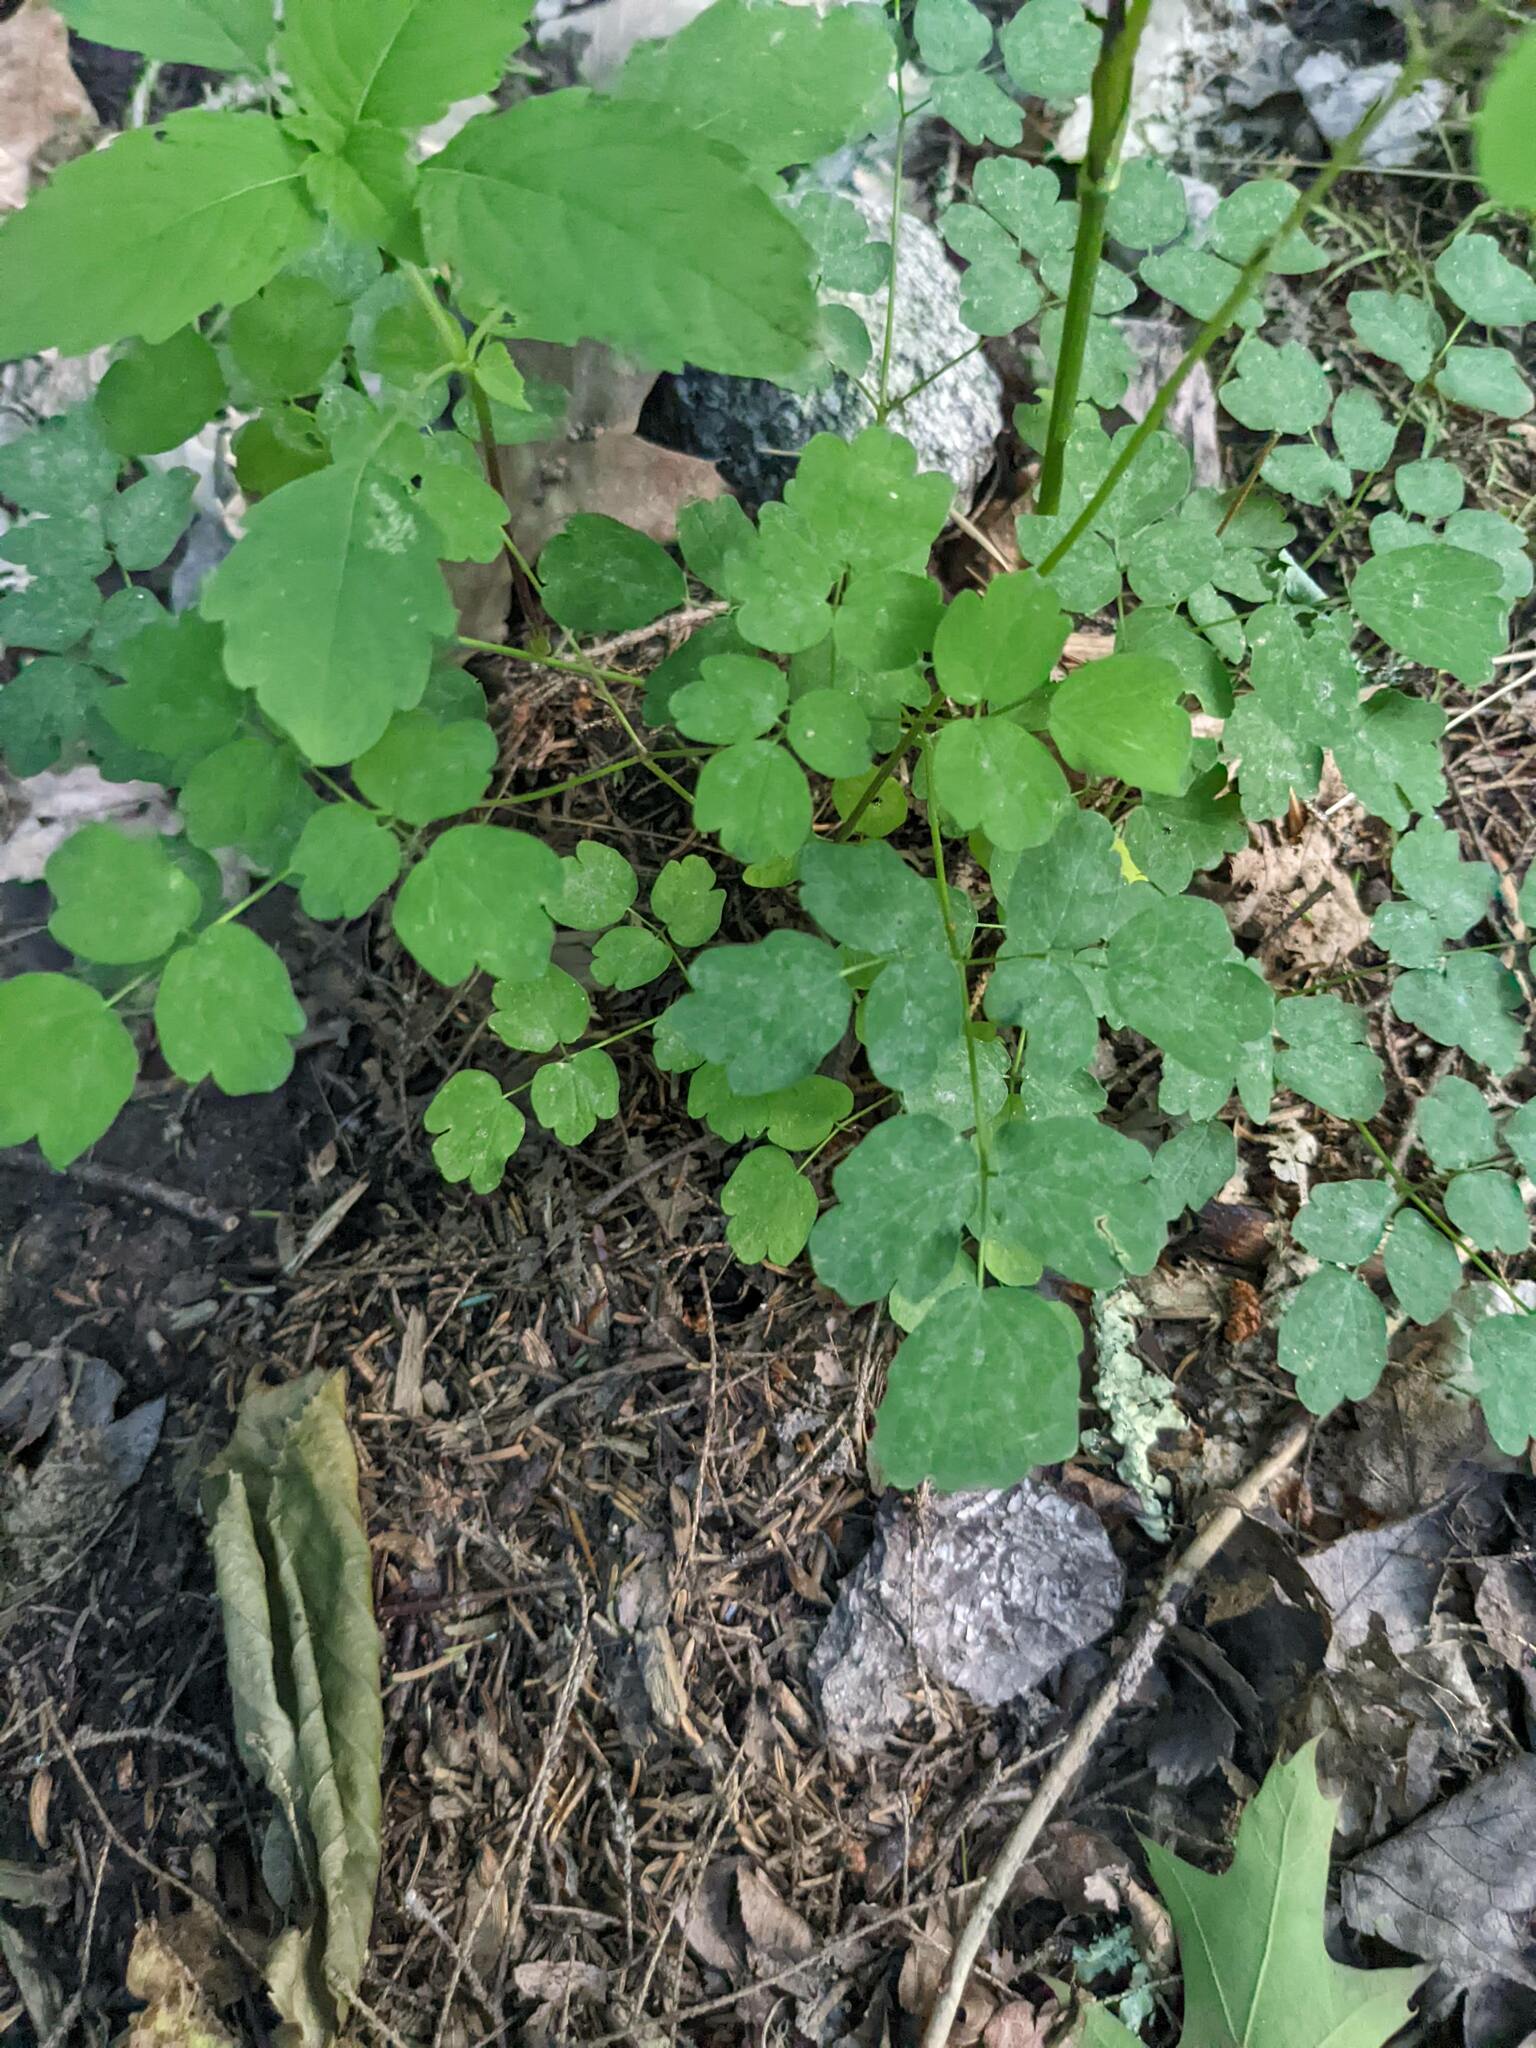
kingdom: Plantae
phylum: Tracheophyta
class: Magnoliopsida
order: Ranunculales
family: Ranunculaceae
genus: Thalictrum
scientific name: Thalictrum pubescens
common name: King-of-the-meadow
